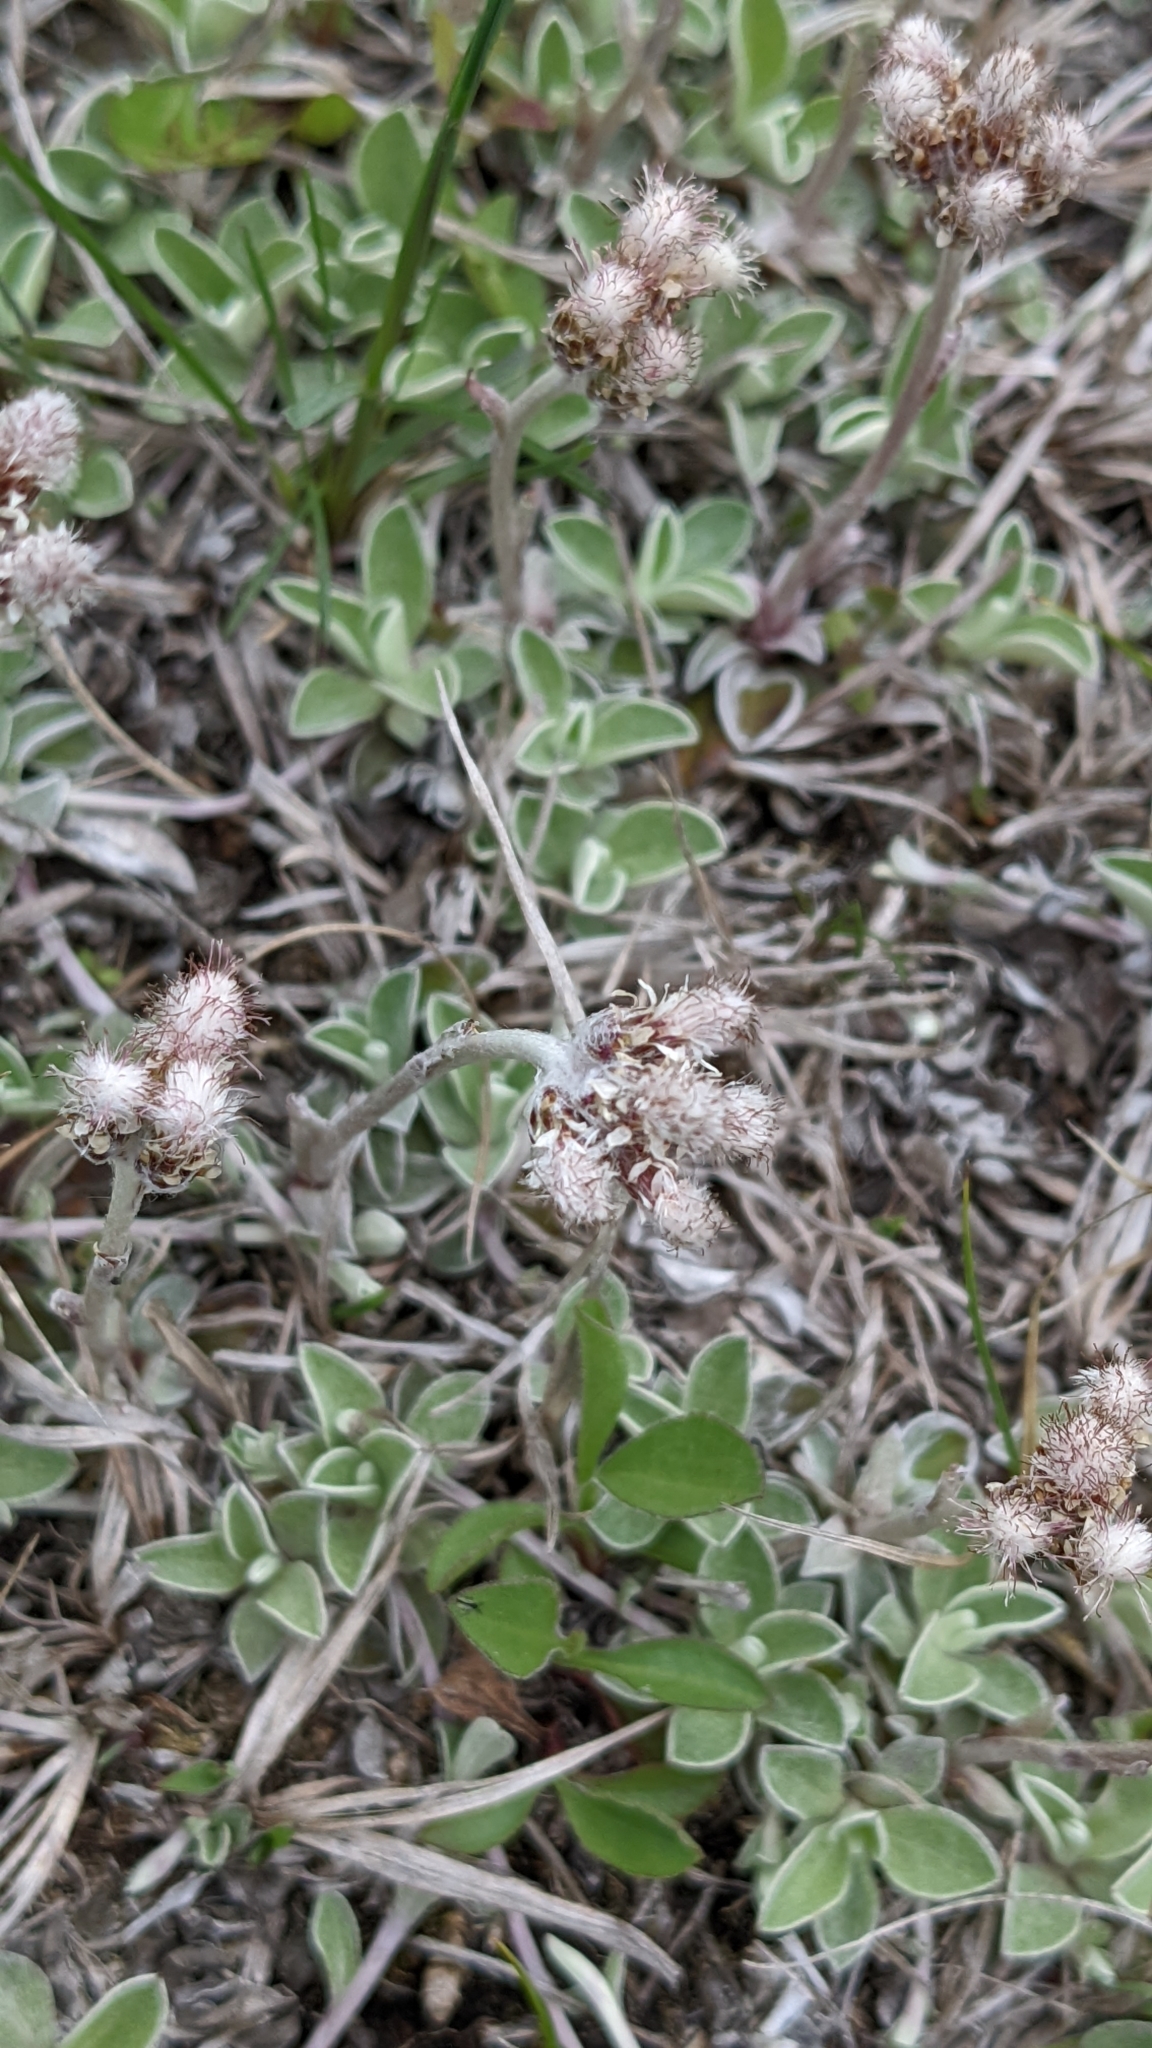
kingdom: Plantae
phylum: Tracheophyta
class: Magnoliopsida
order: Asterales
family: Asteraceae
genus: Antennaria
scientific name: Antennaria neglecta
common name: Field pussytoes
